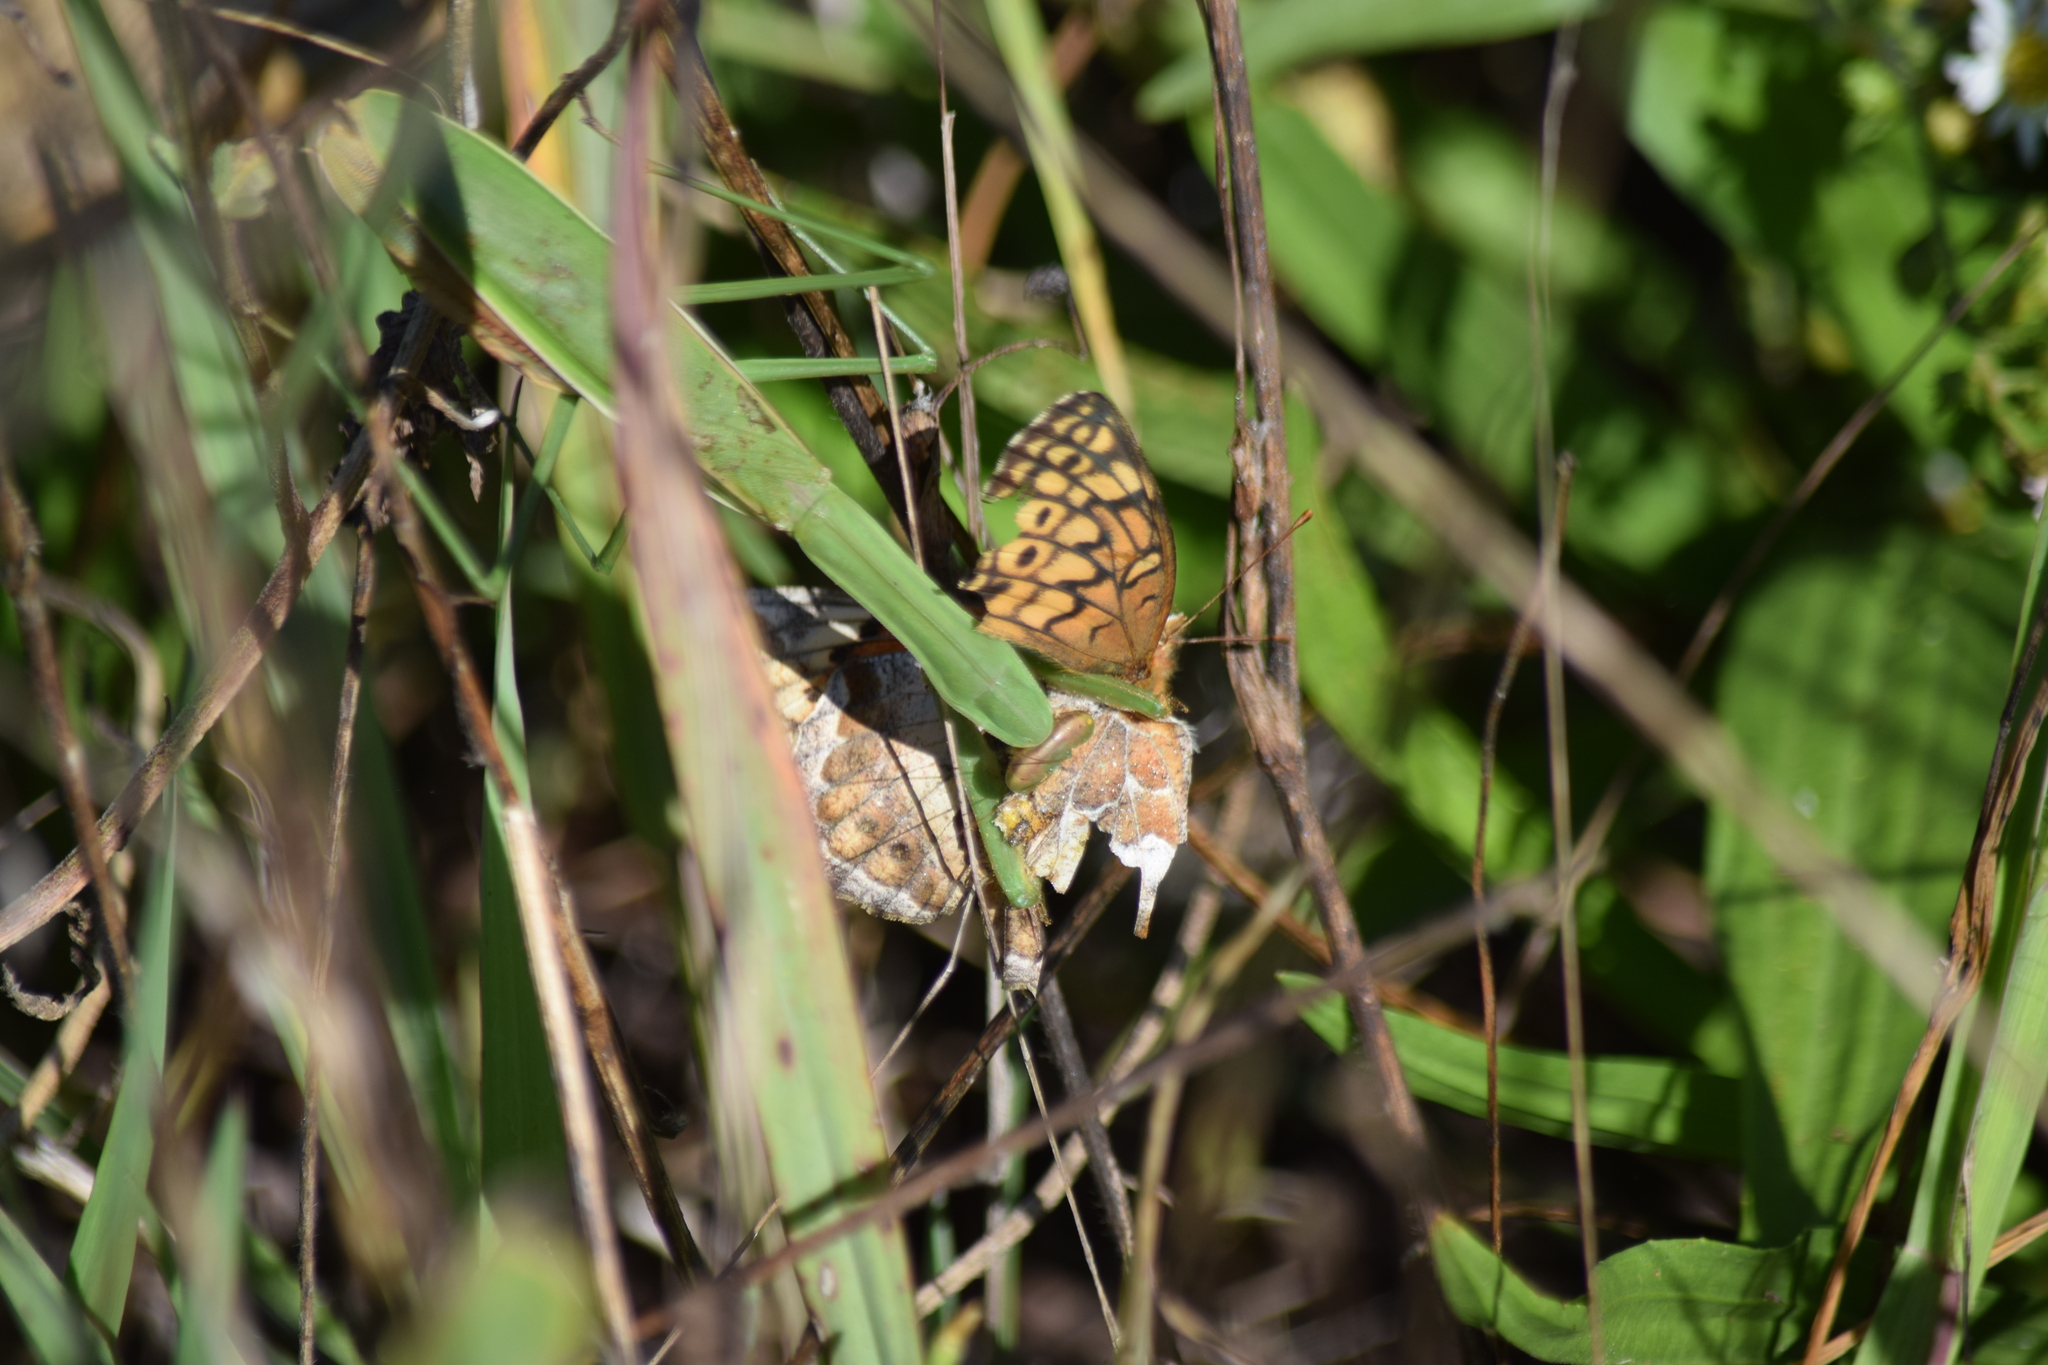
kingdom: Animalia
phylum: Arthropoda
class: Insecta
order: Lepidoptera
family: Nymphalidae
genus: Euptoieta
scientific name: Euptoieta claudia
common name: Variegated fritillary
